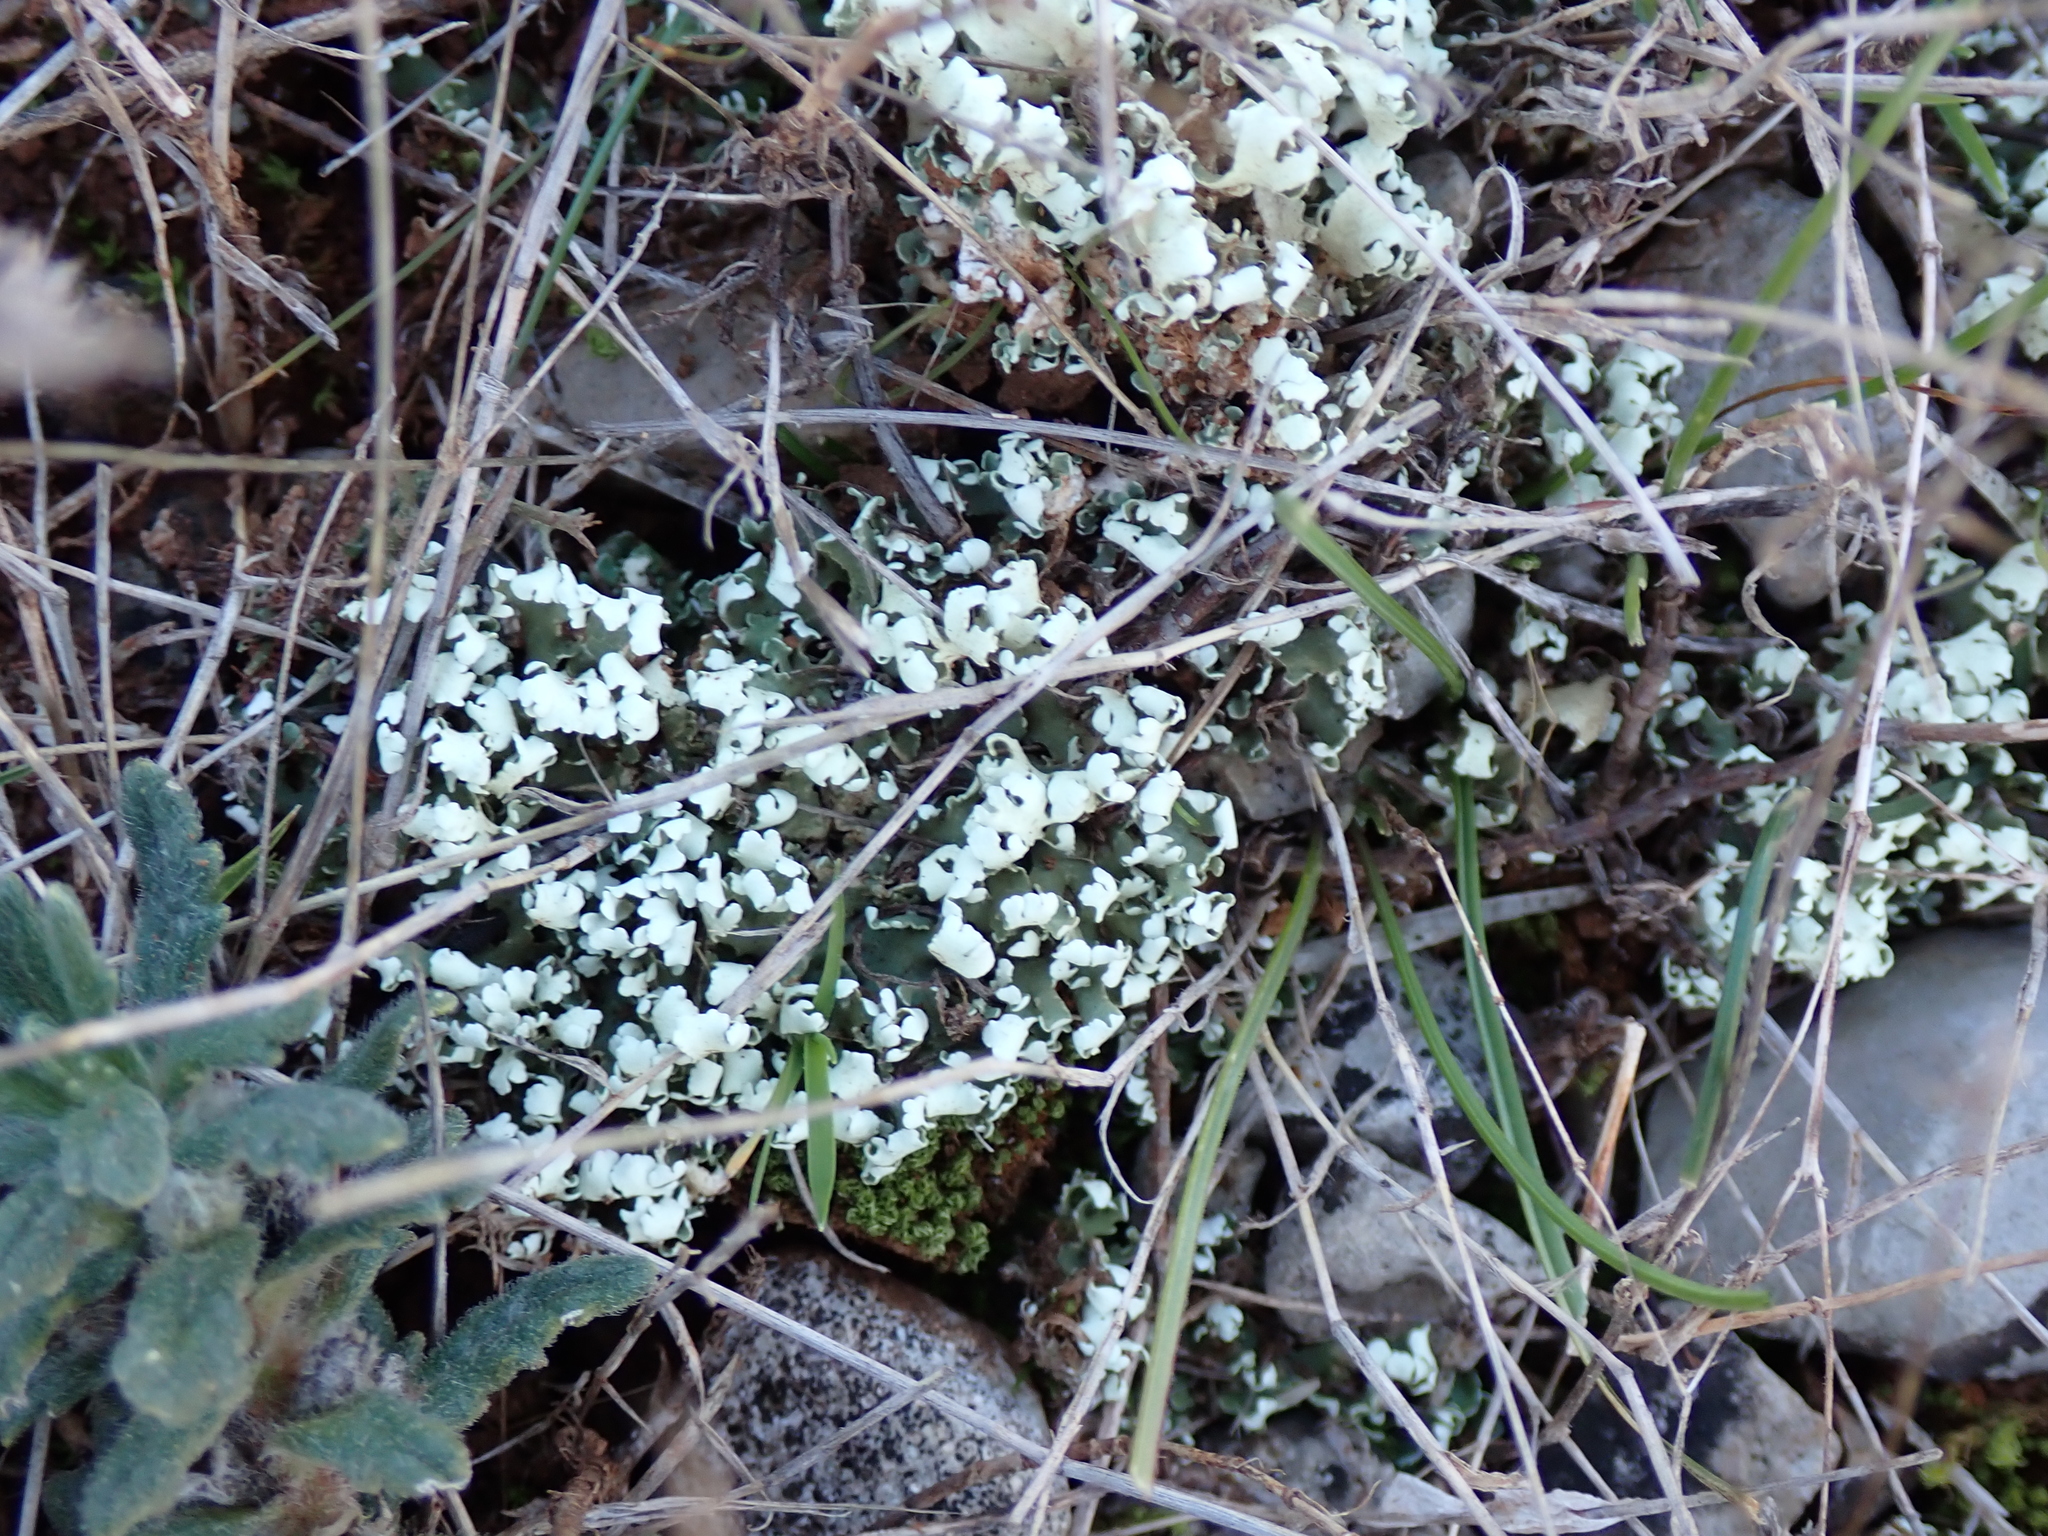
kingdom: Fungi
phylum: Ascomycota
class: Lecanoromycetes
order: Lecanorales
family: Cladoniaceae
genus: Cladonia
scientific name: Cladonia foliacea
